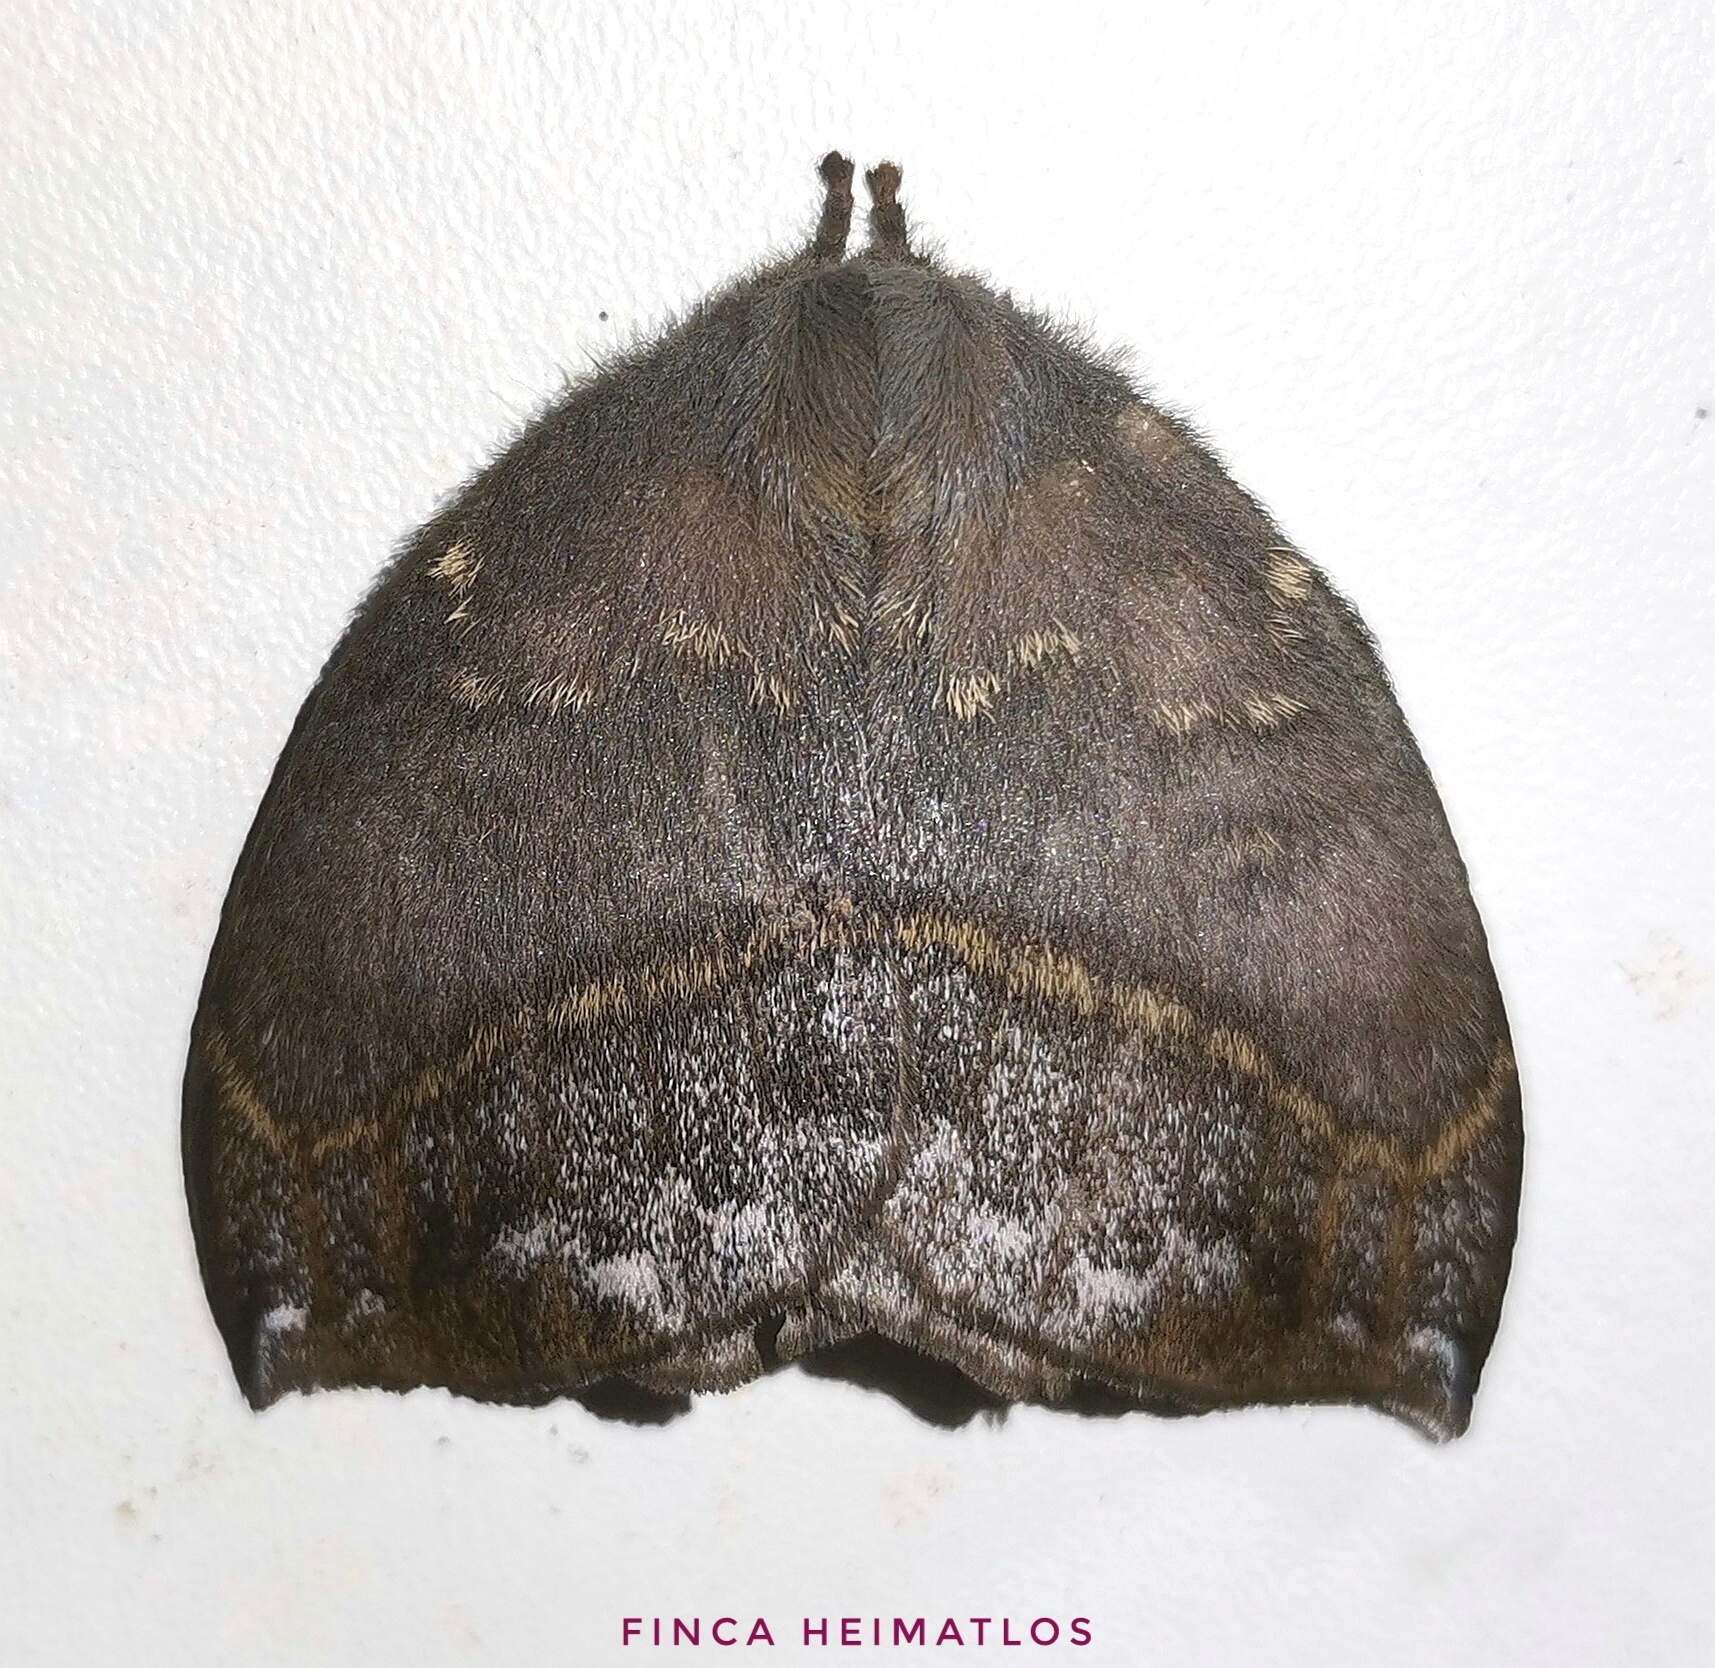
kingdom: Animalia
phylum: Arthropoda
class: Insecta
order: Lepidoptera
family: Saturniidae
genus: Gamelia
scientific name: Gamelia rubriluna
